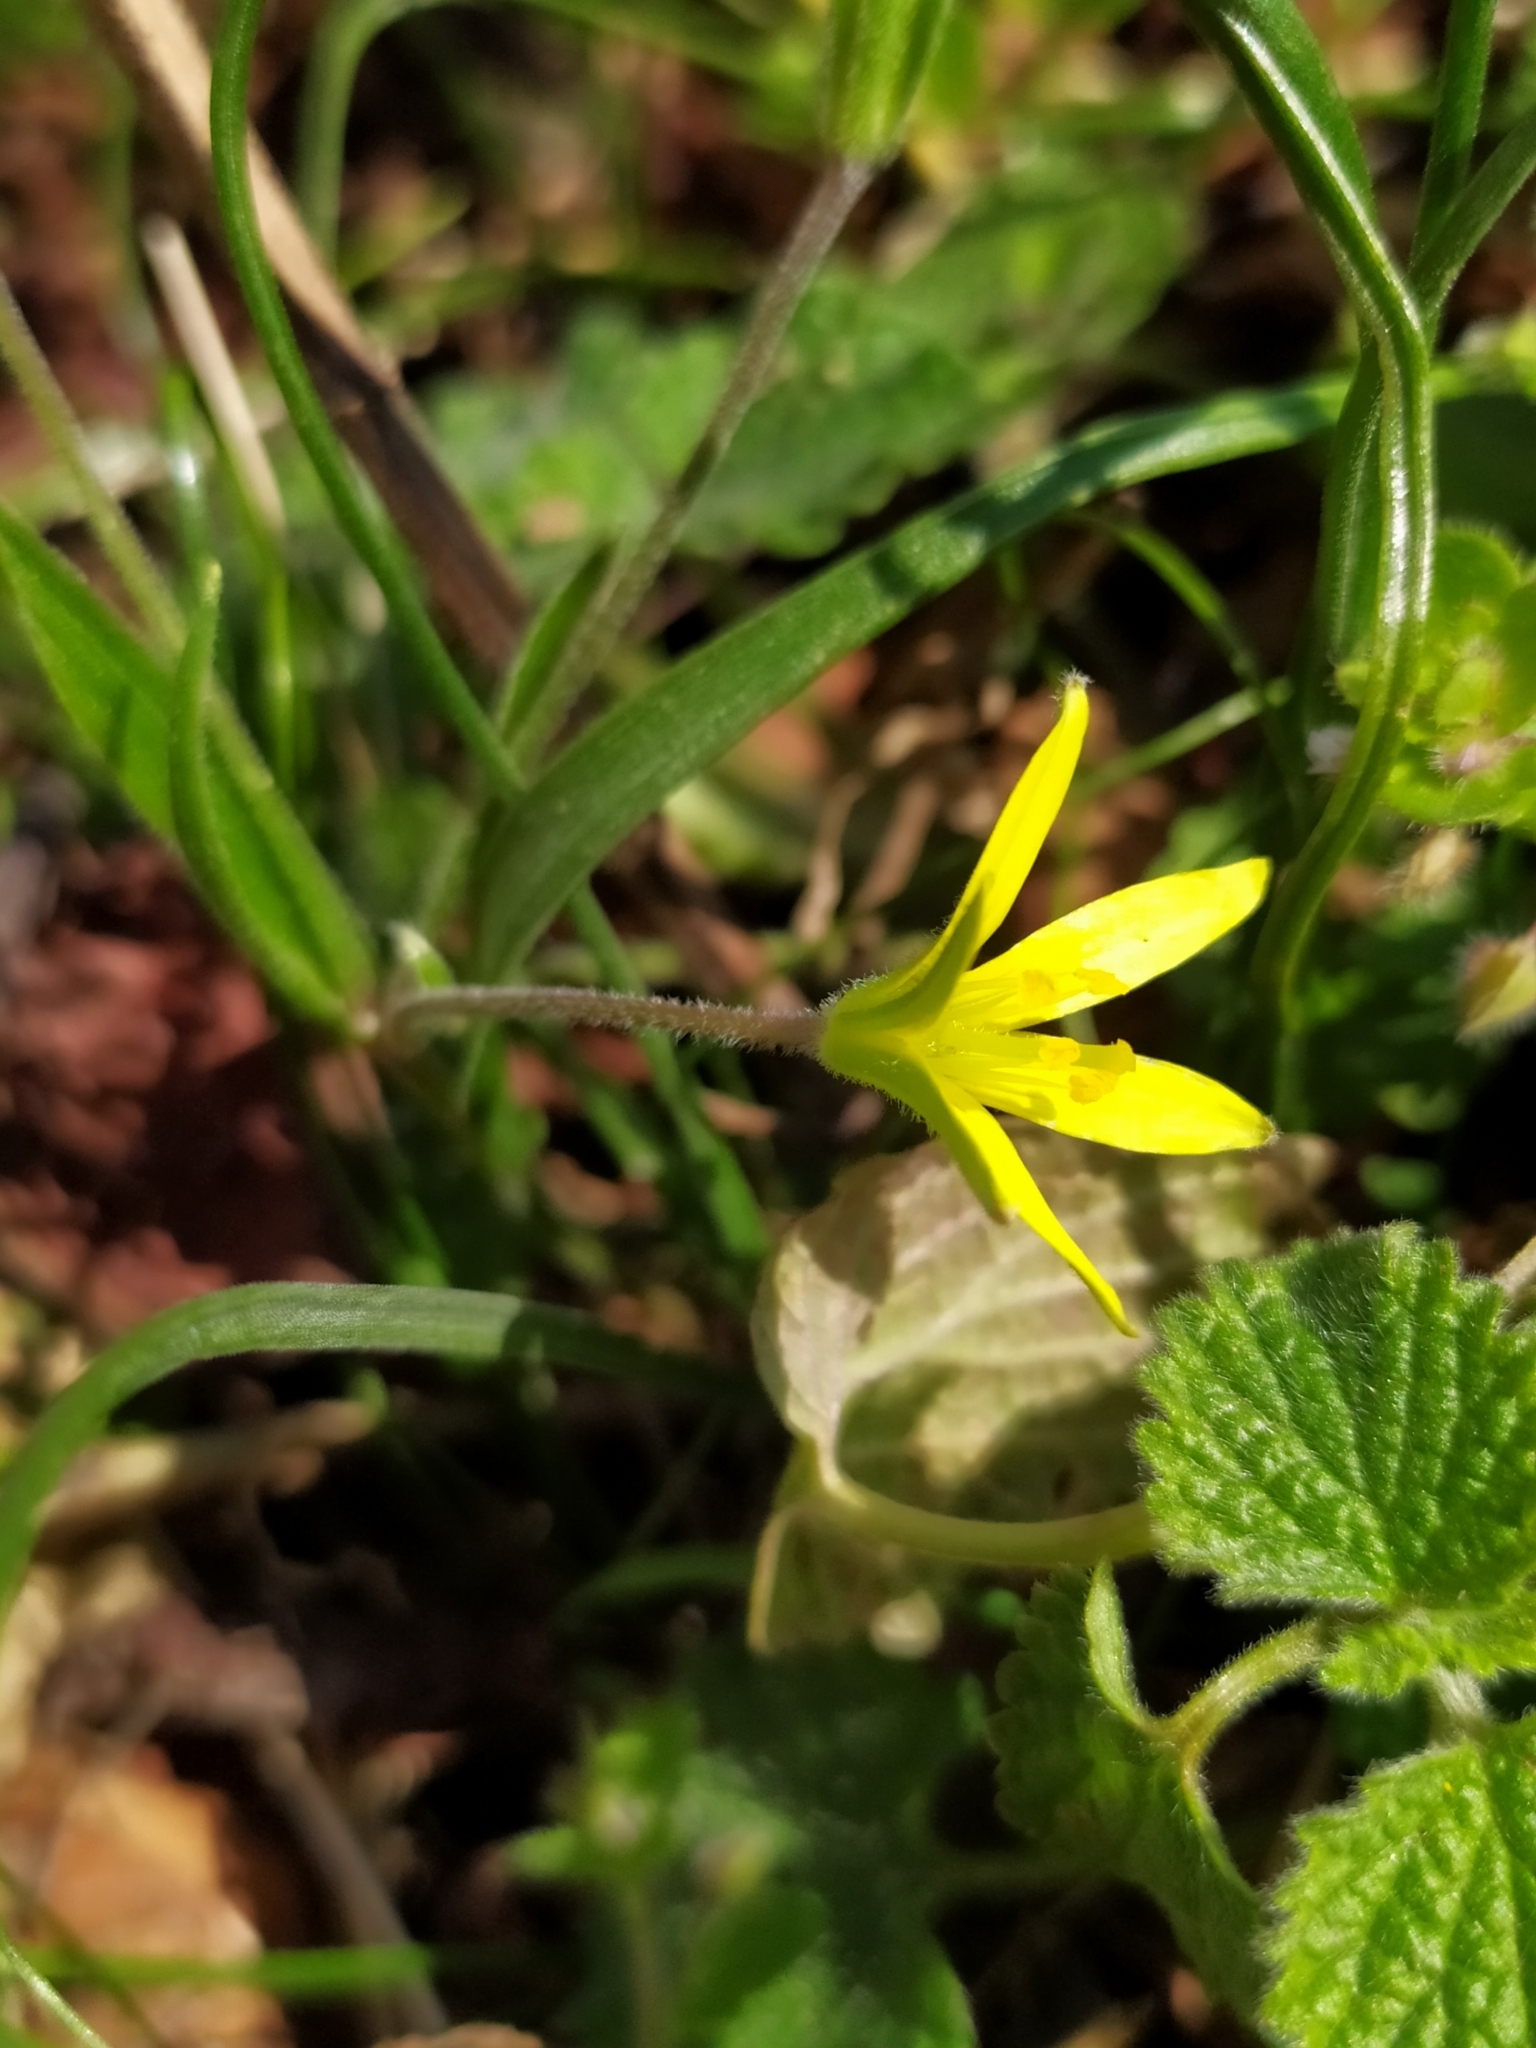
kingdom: Plantae
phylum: Tracheophyta
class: Liliopsida
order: Liliales
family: Liliaceae
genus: Gagea
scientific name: Gagea villosa
